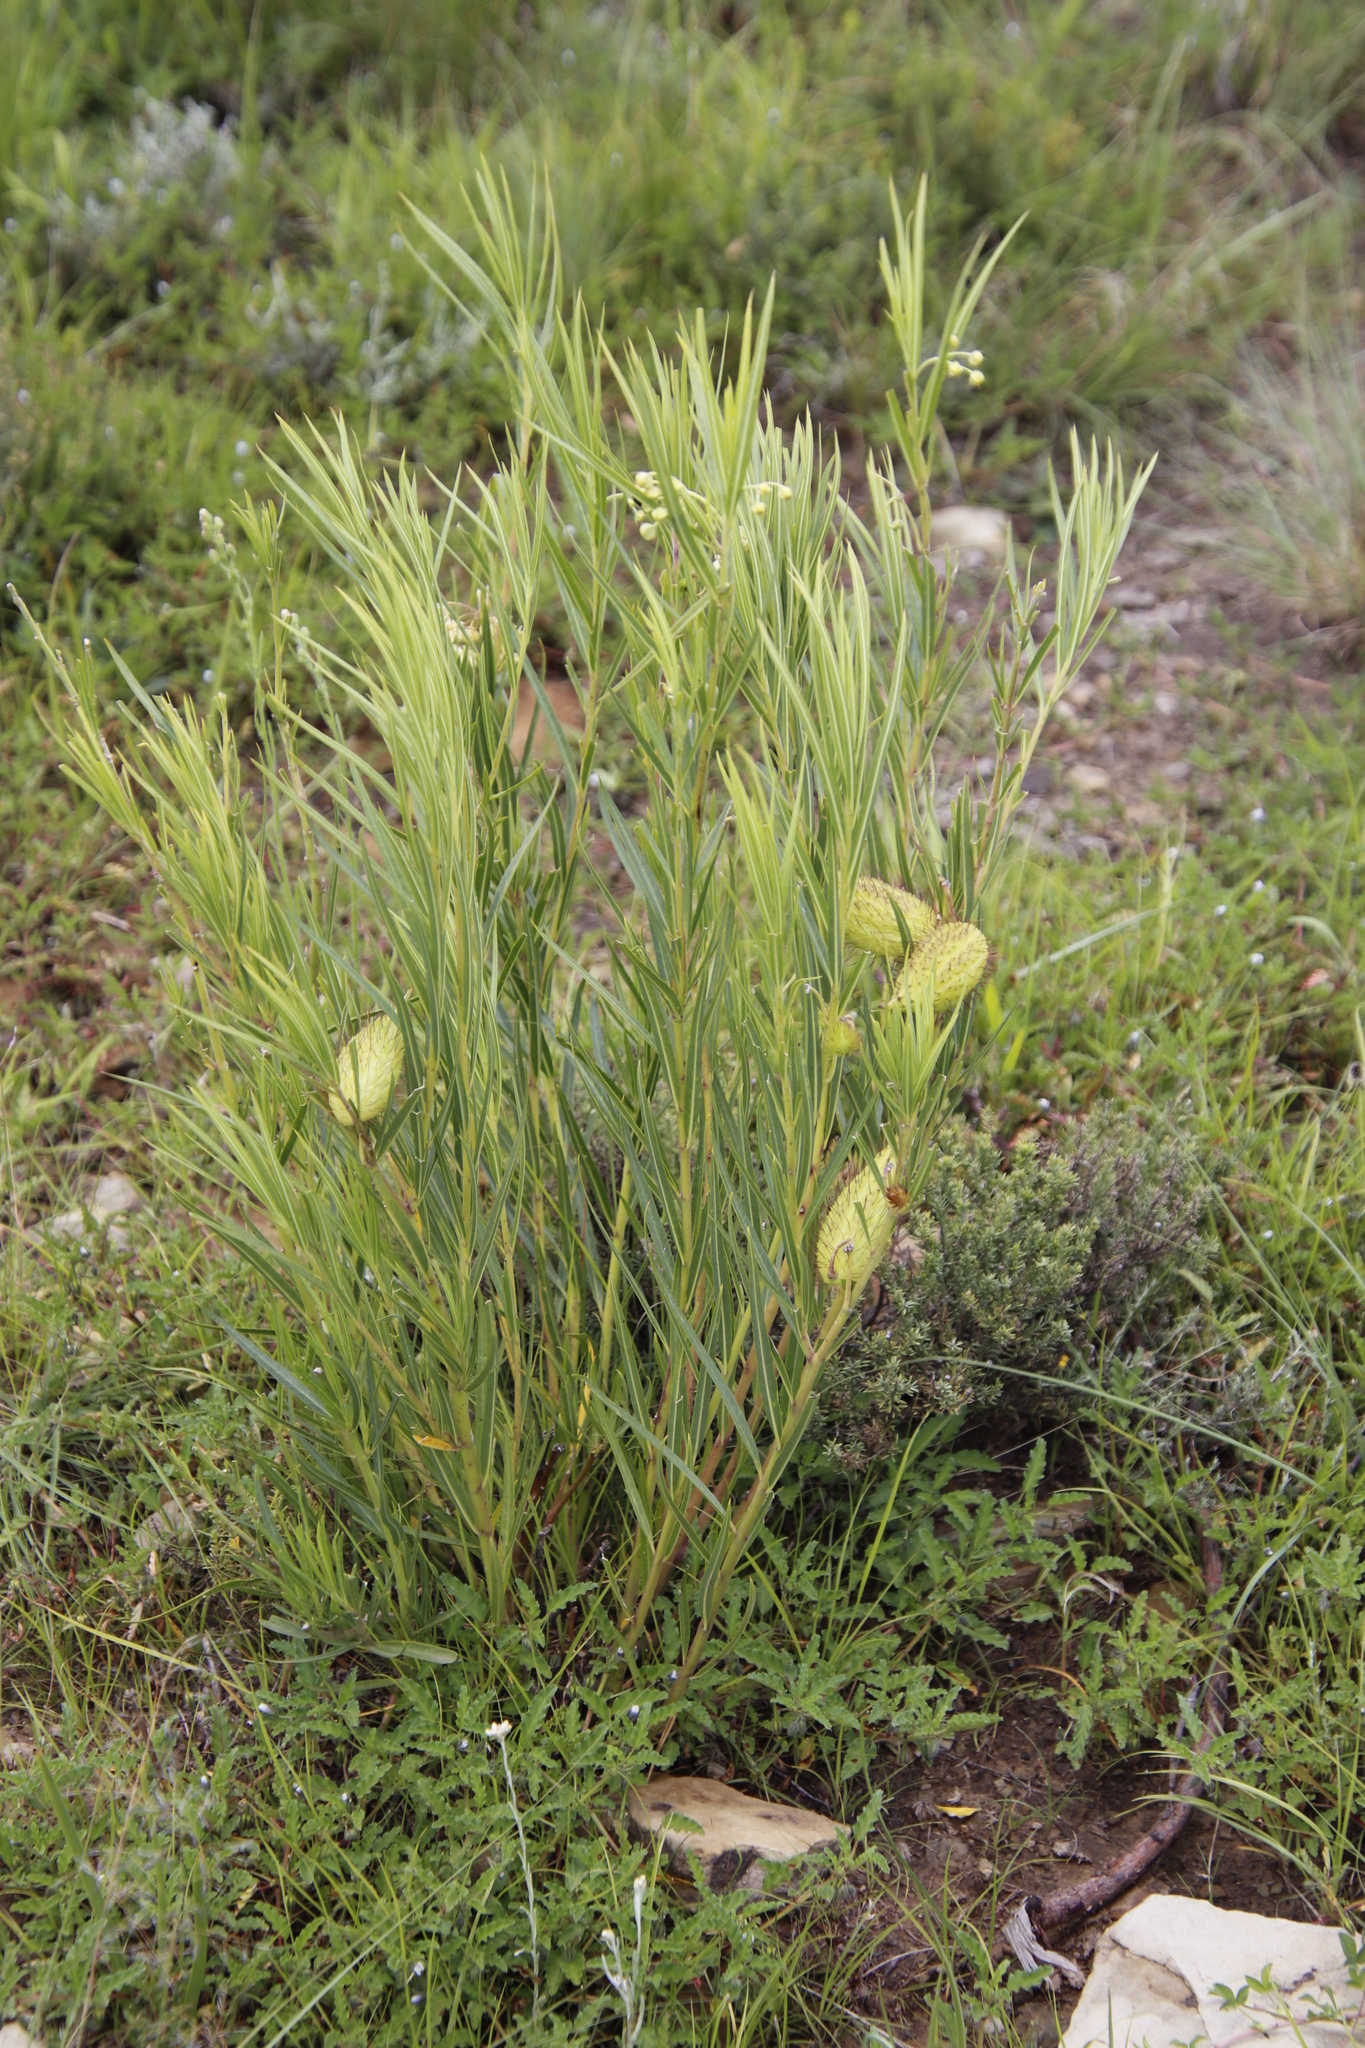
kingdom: Plantae
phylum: Tracheophyta
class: Magnoliopsida
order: Gentianales
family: Apocynaceae
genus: Gomphocarpus
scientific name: Gomphocarpus fruticosus
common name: Milkweed
